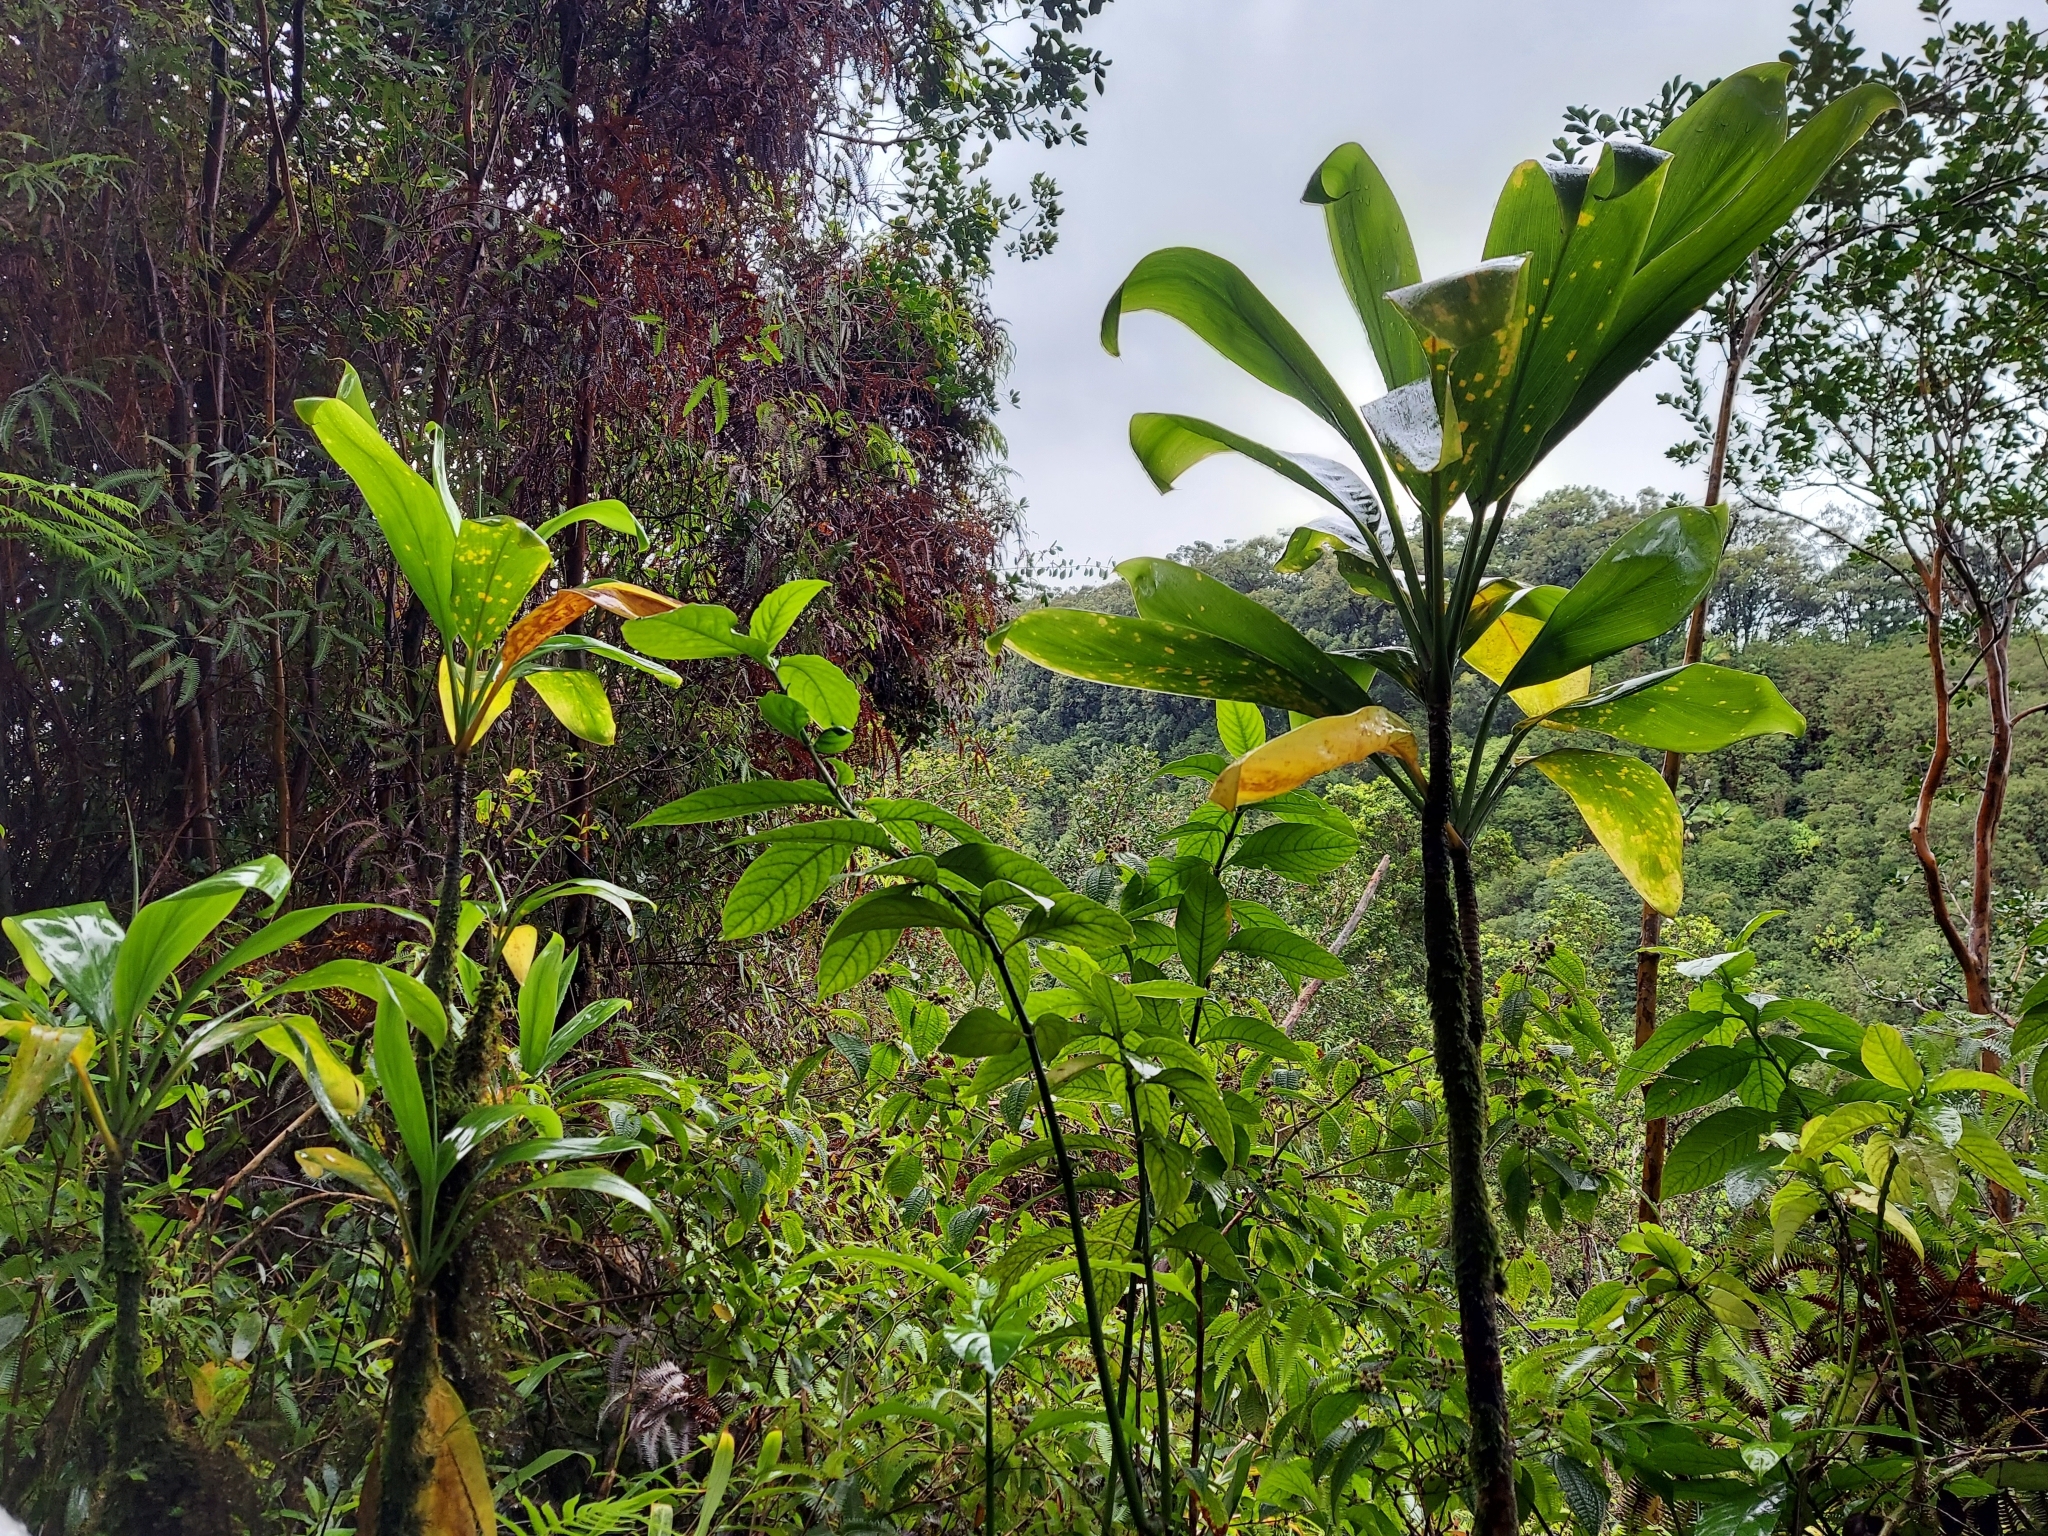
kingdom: Plantae
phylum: Tracheophyta
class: Liliopsida
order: Asparagales
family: Asparagaceae
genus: Cordyline
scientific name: Cordyline fruticosa
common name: Good-luck-plant
